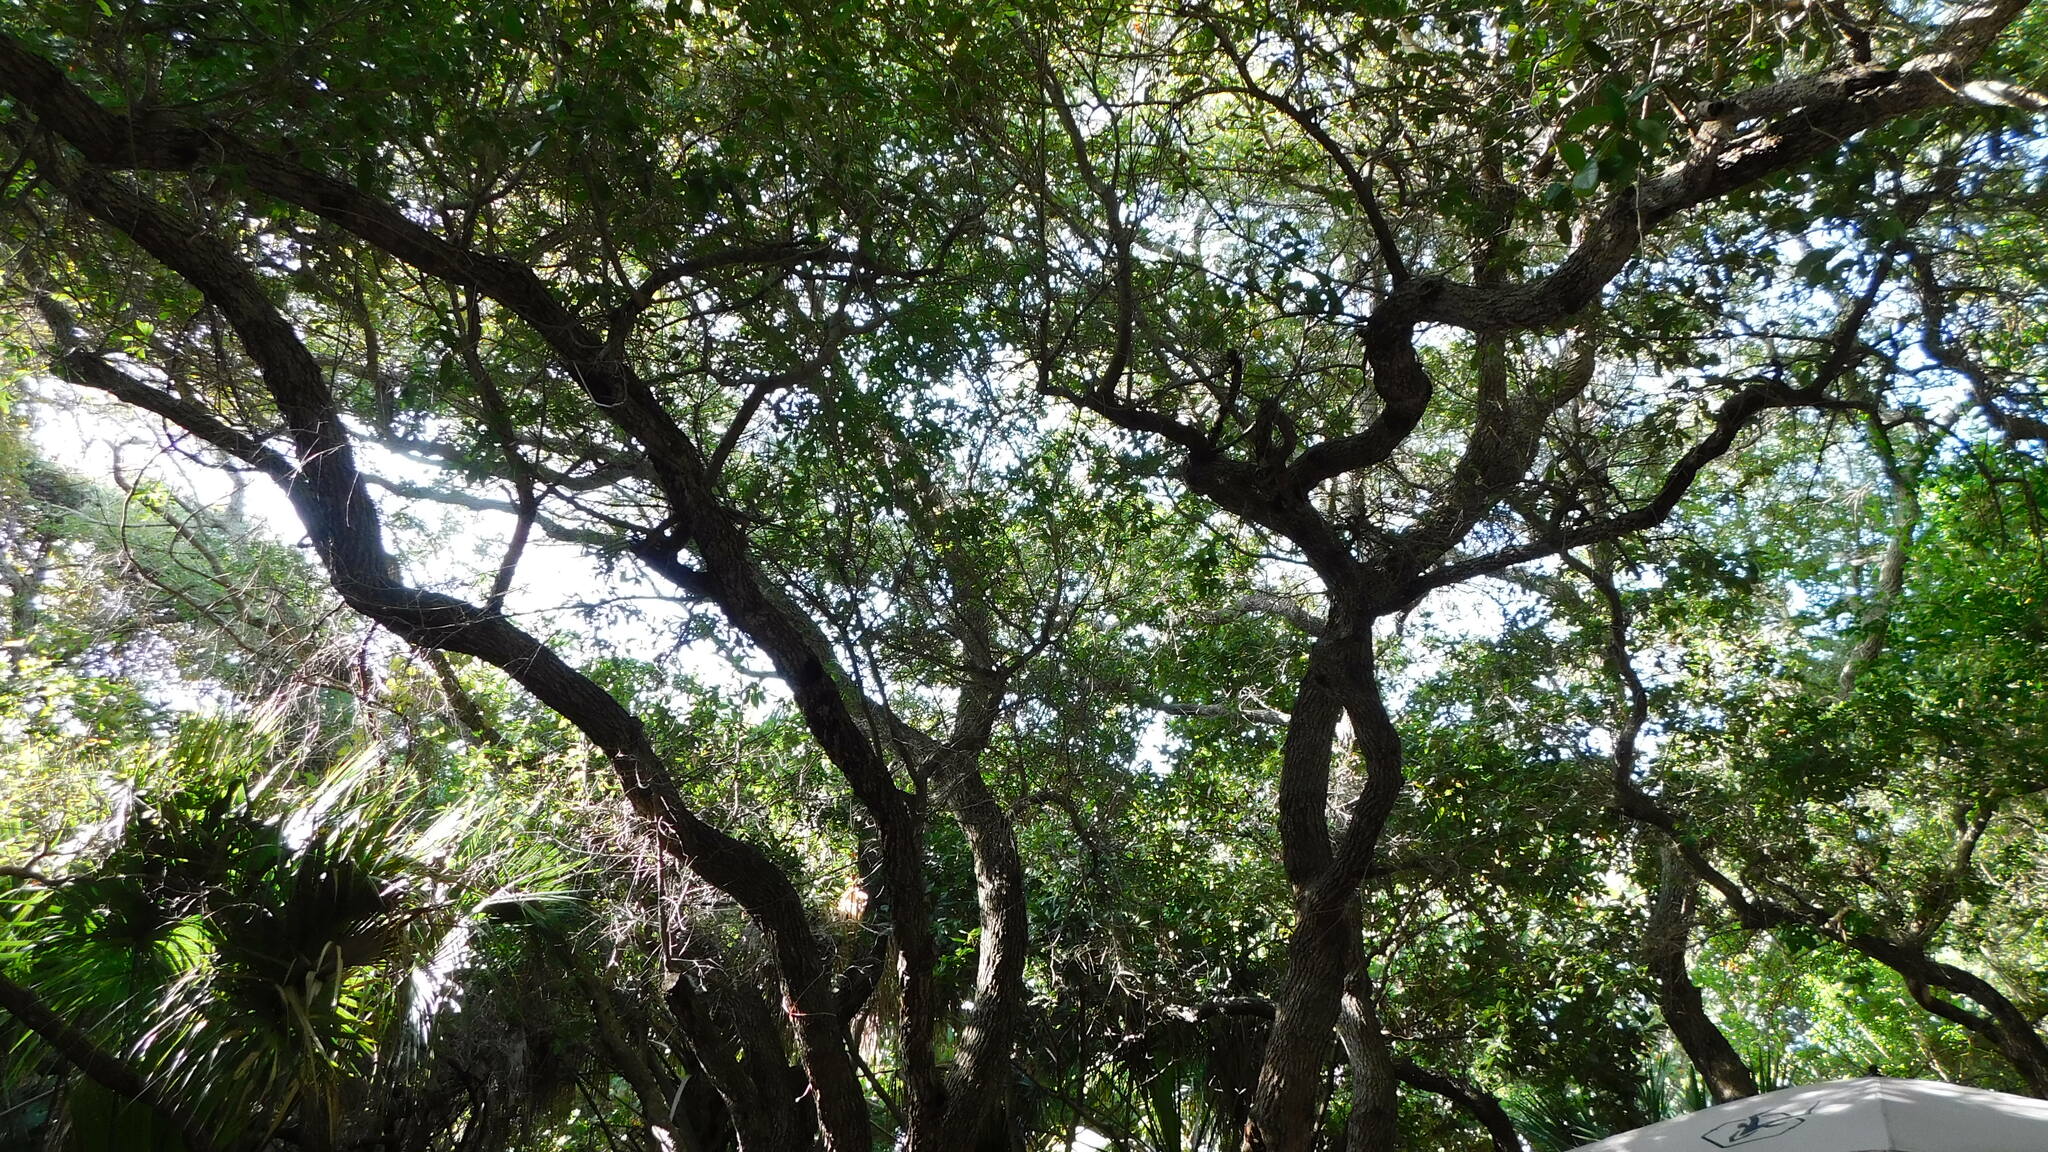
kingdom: Plantae
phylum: Tracheophyta
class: Magnoliopsida
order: Fagales
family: Fagaceae
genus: Quercus
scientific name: Quercus virginiana
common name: Southern live oak
